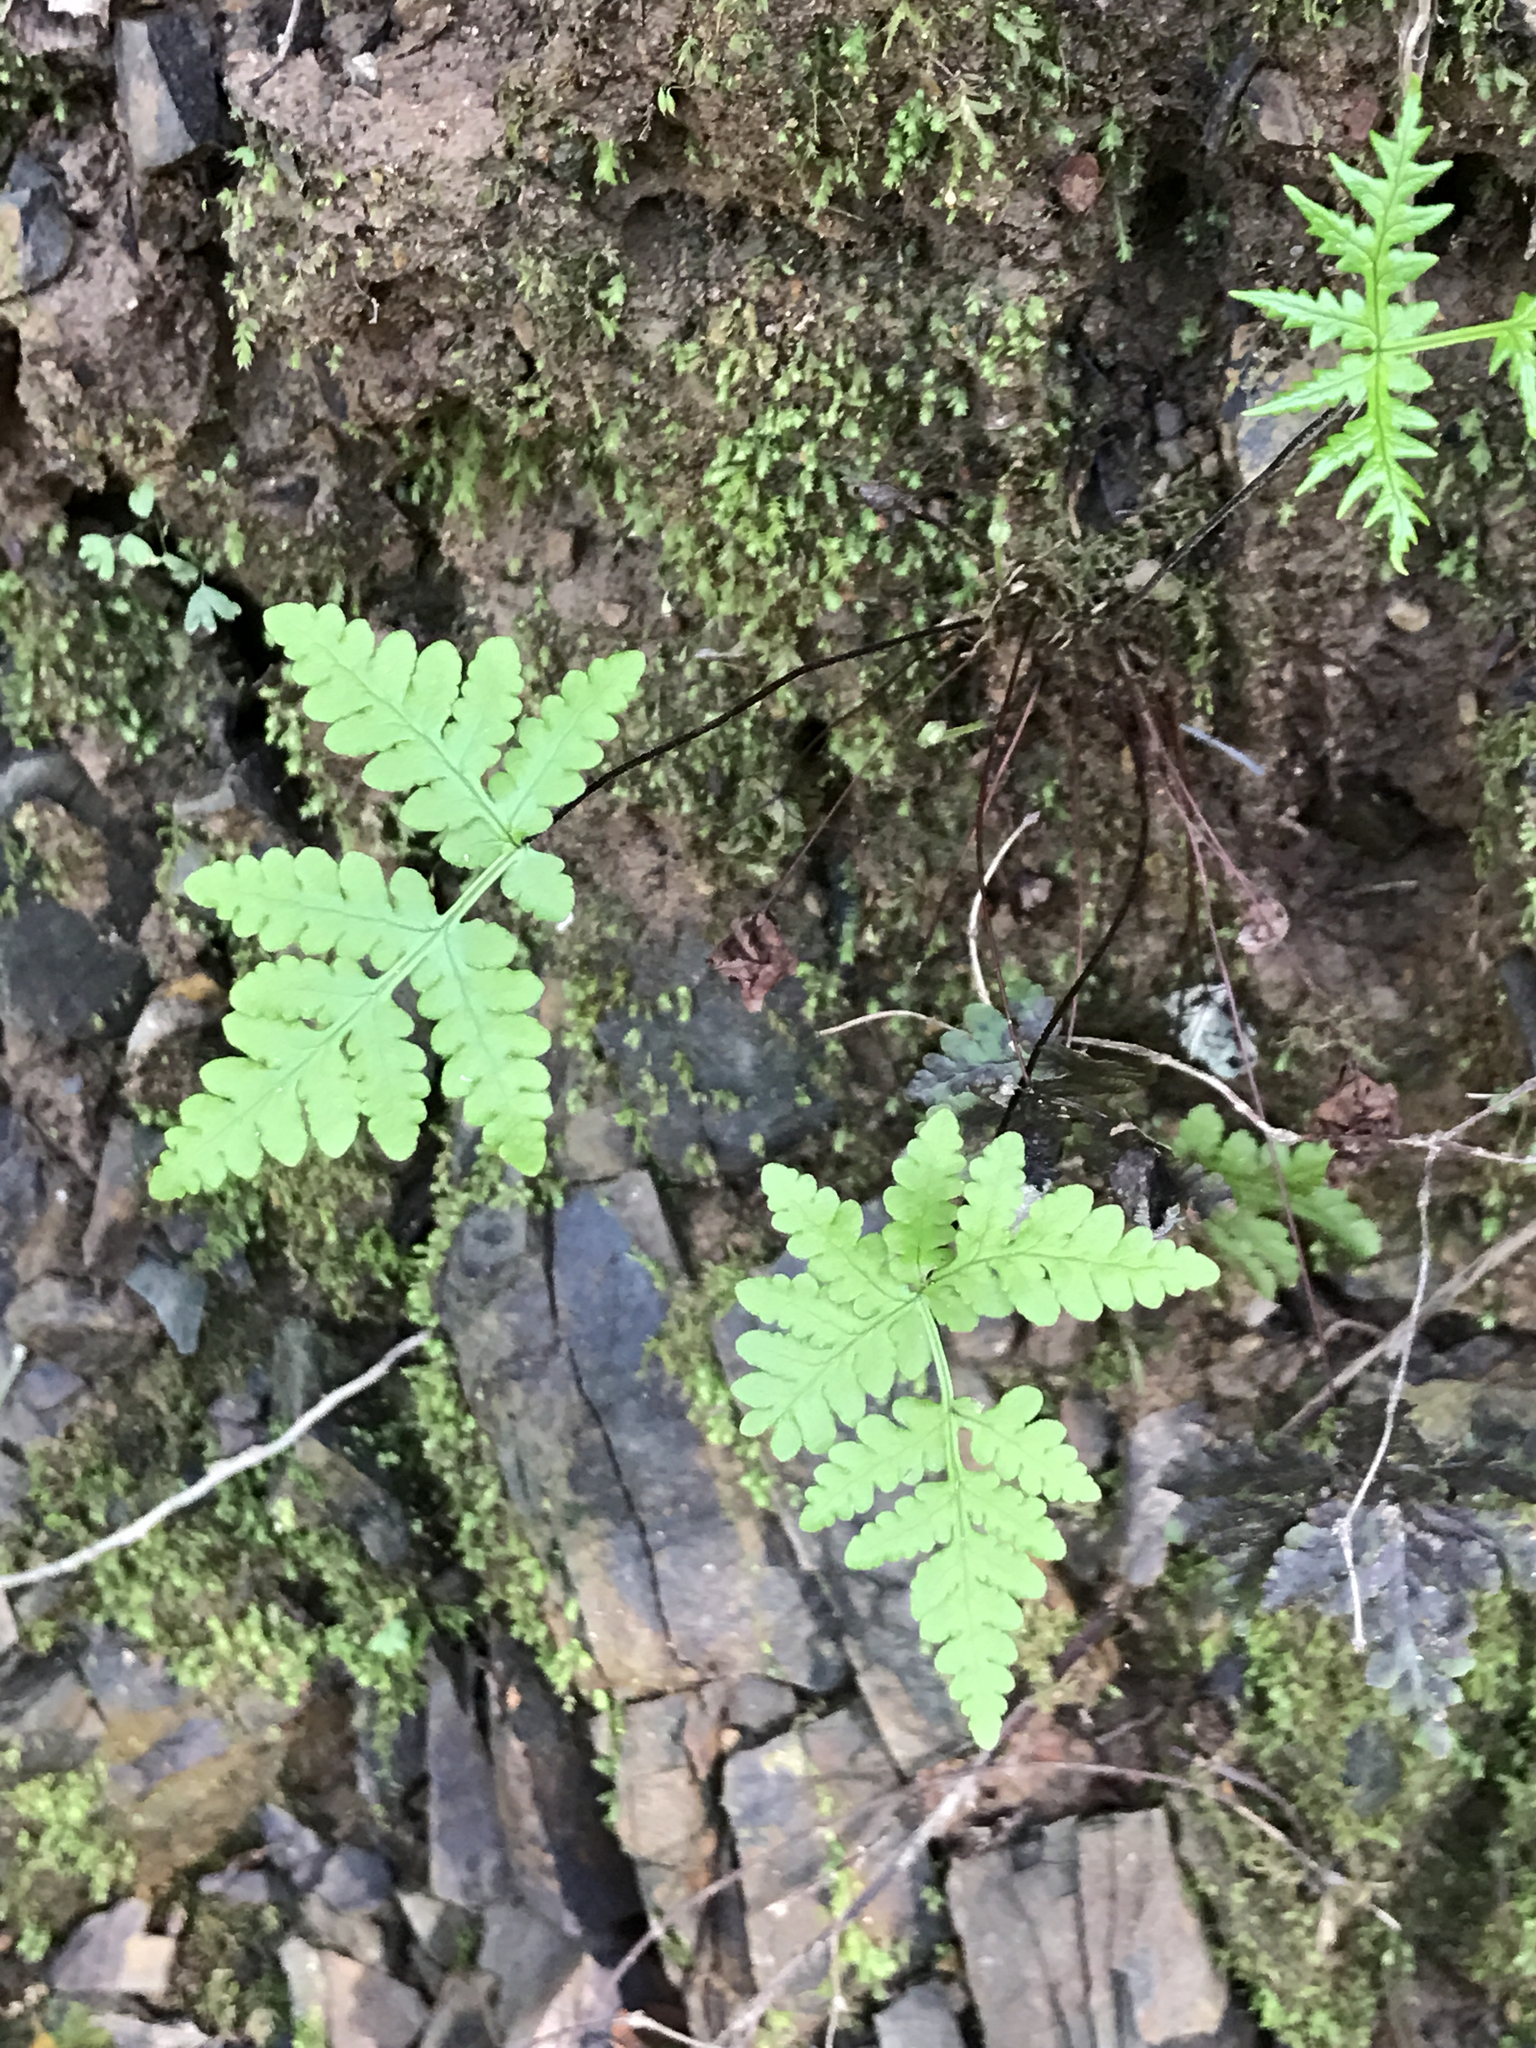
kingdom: Plantae
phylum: Tracheophyta
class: Polypodiopsida
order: Polypodiales
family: Pteridaceae
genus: Pentagramma
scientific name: Pentagramma triangularis
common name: Gold fern
